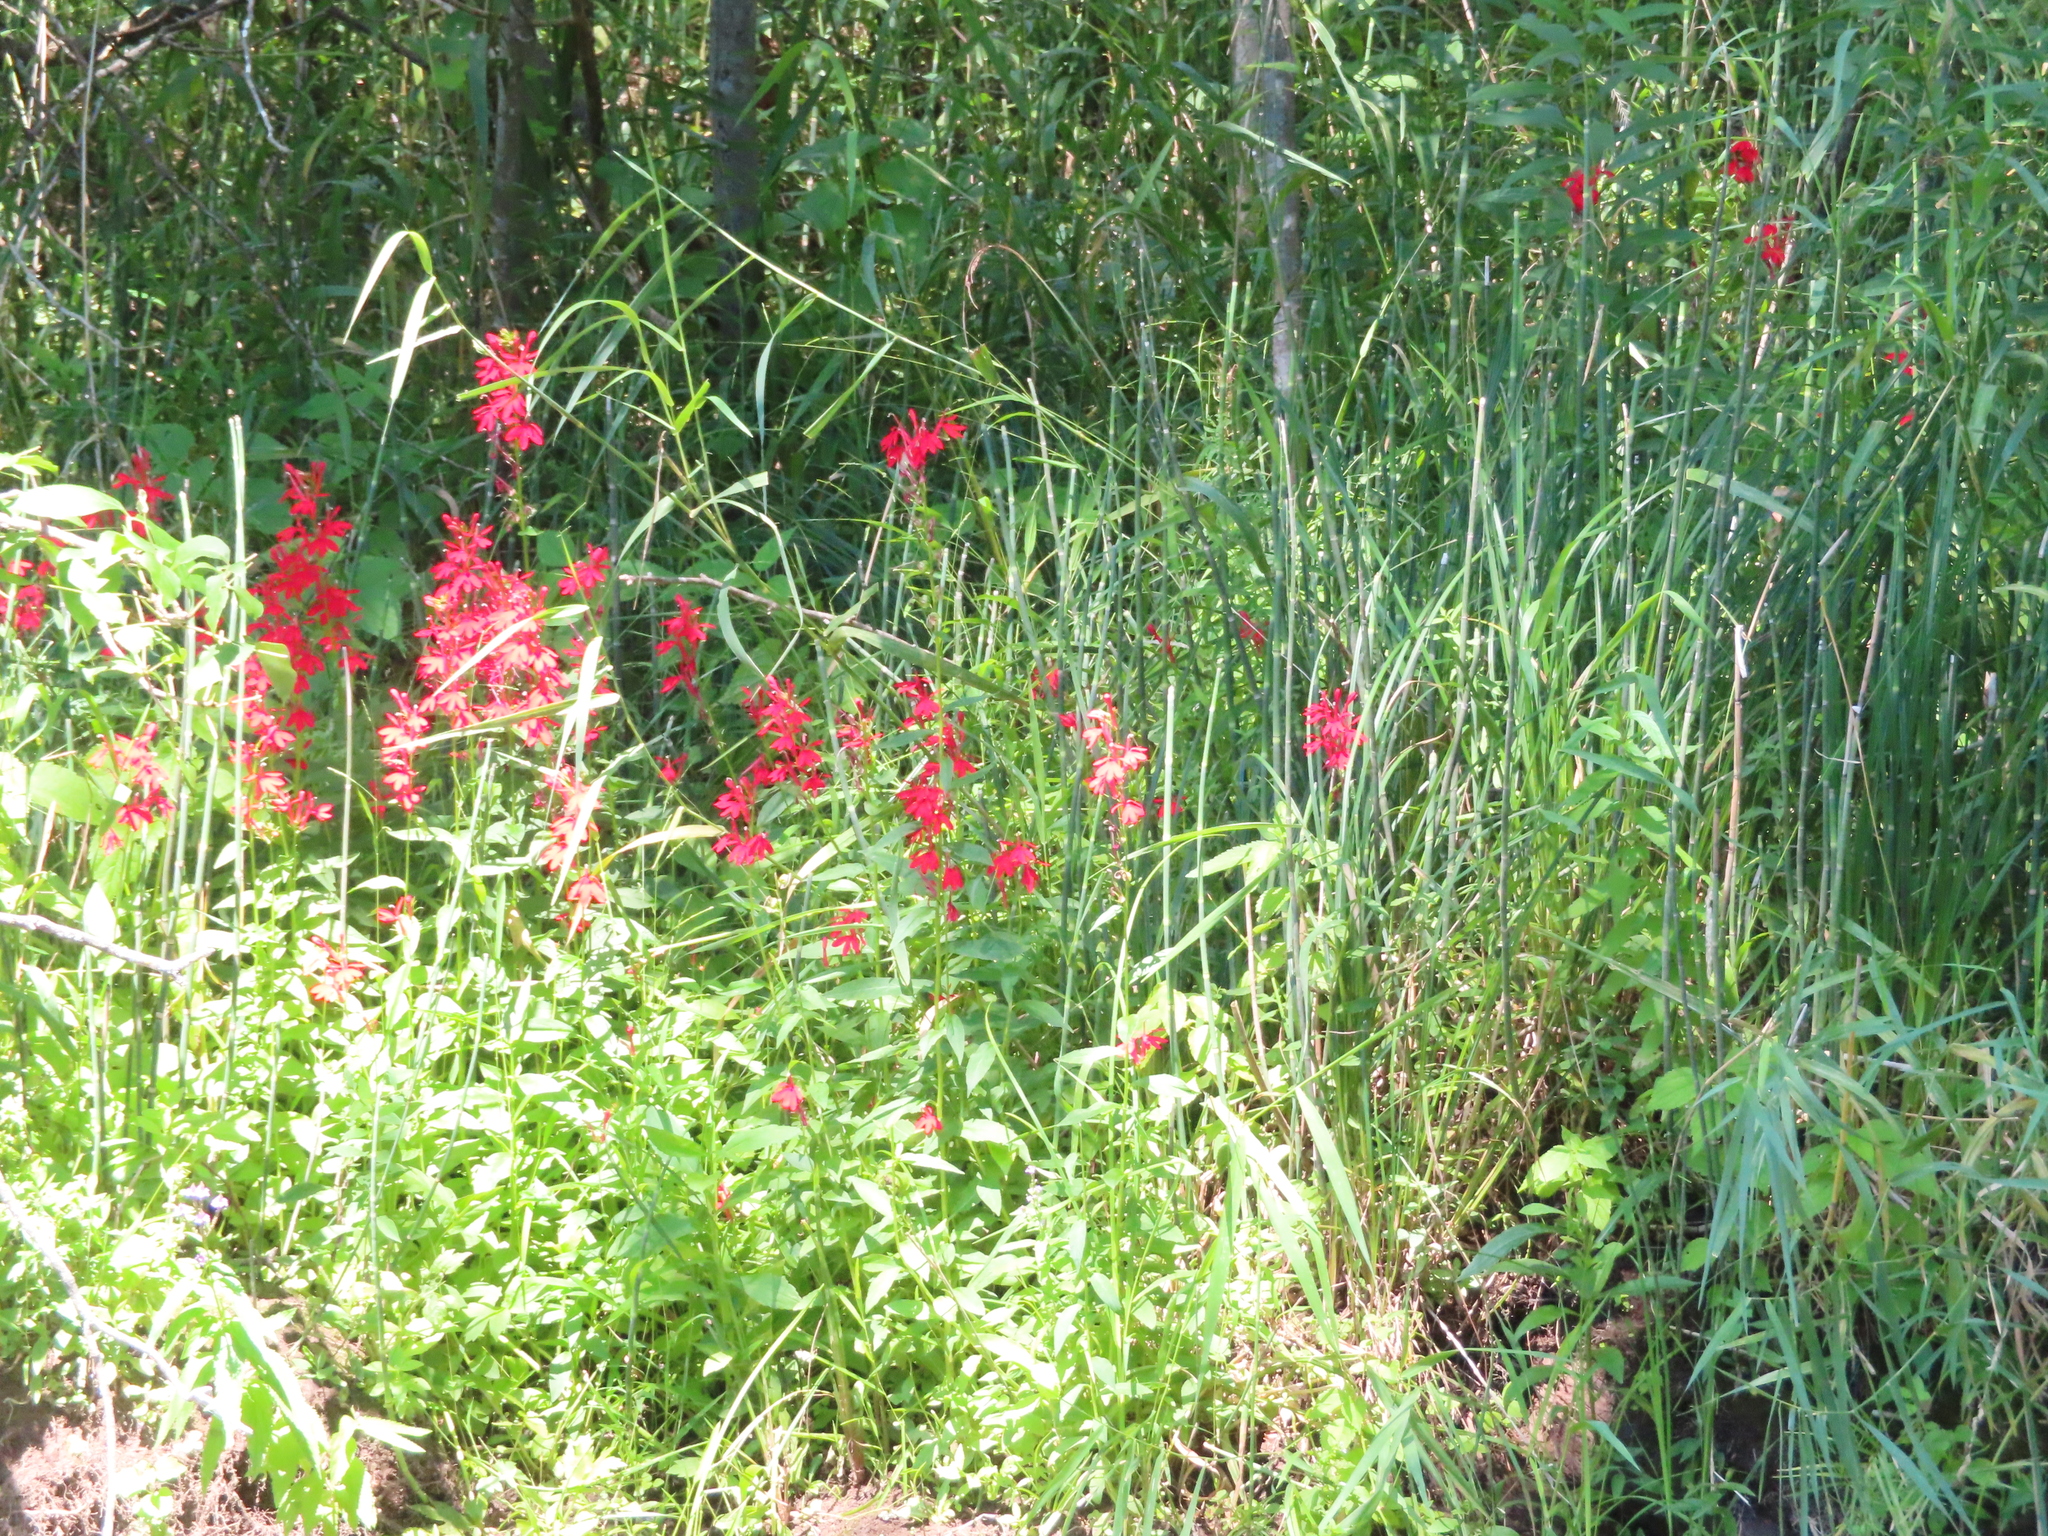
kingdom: Plantae
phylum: Tracheophyta
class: Magnoliopsida
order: Asterales
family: Campanulaceae
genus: Lobelia
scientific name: Lobelia cardinalis
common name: Cardinal flower
